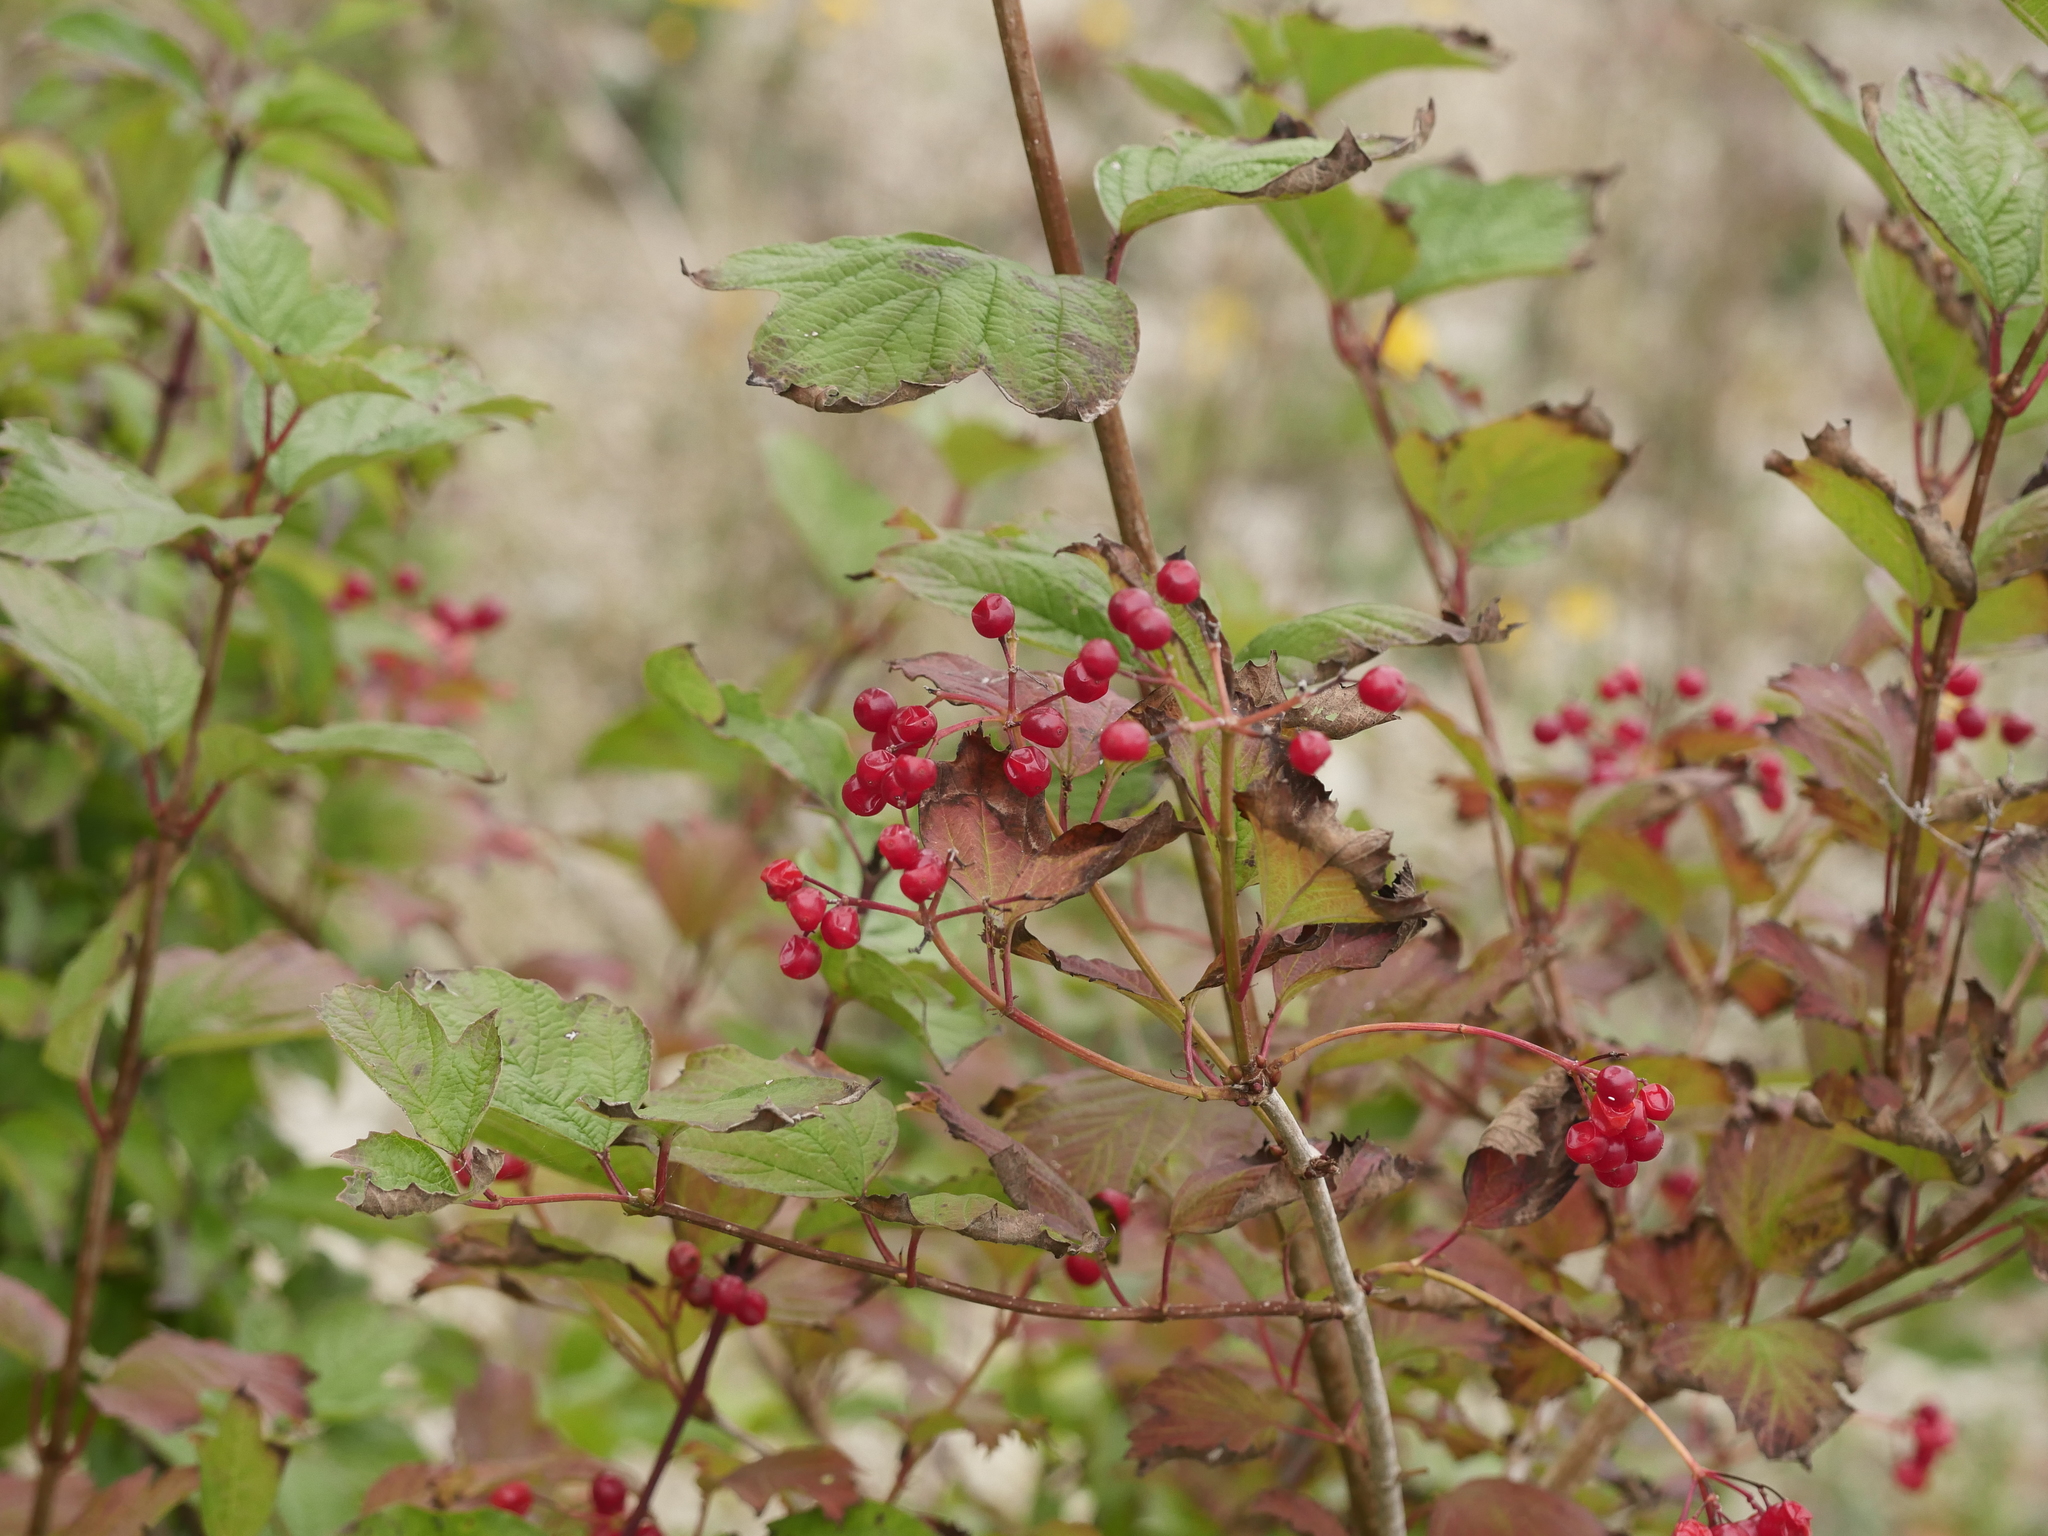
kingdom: Plantae
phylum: Tracheophyta
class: Magnoliopsida
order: Dipsacales
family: Viburnaceae
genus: Viburnum
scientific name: Viburnum opulus
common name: Guelder-rose
